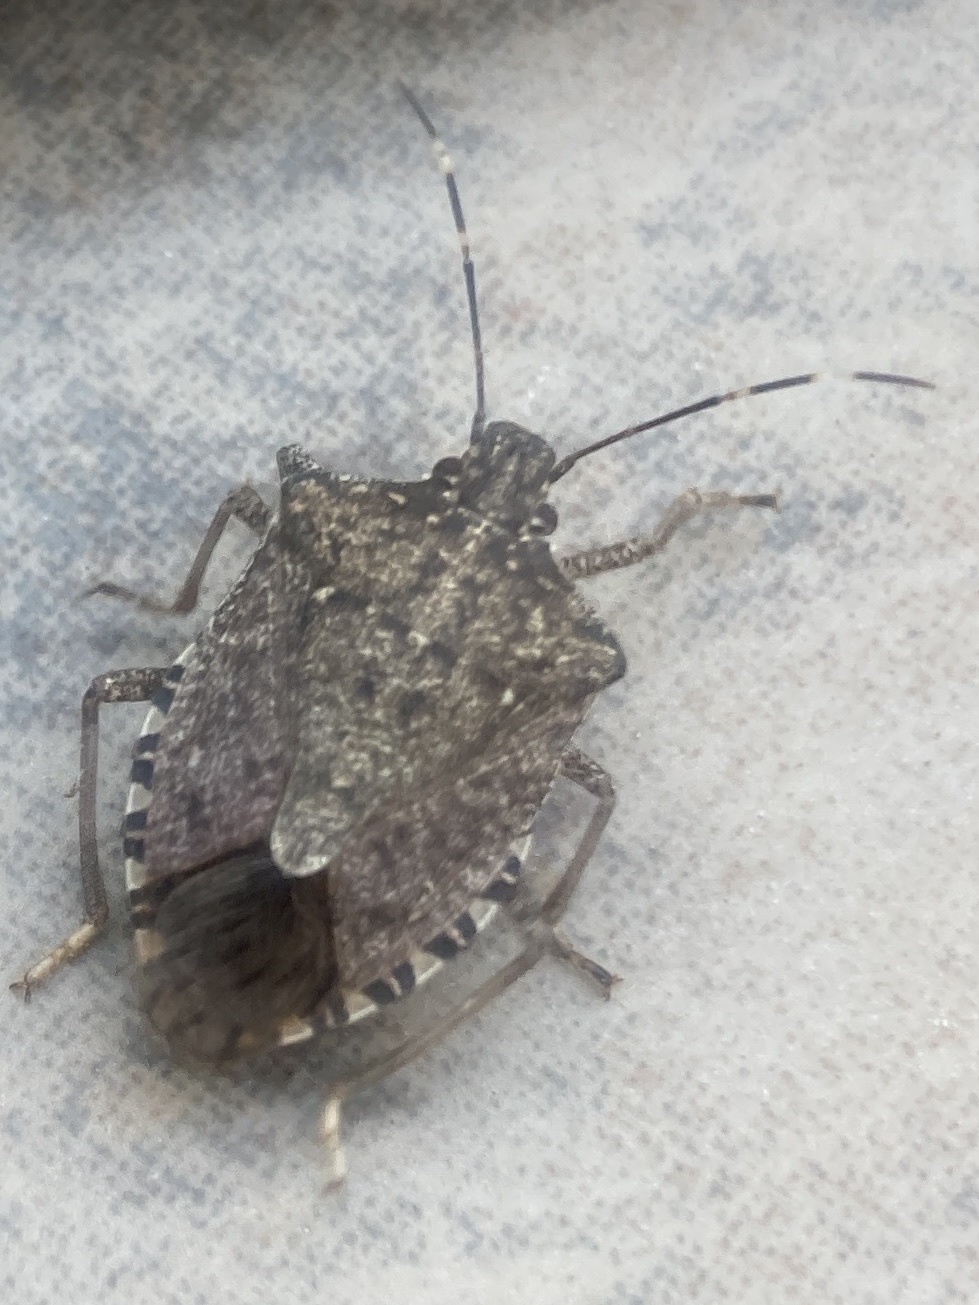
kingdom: Animalia
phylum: Arthropoda
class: Insecta
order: Hemiptera
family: Pentatomidae
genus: Halyomorpha
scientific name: Halyomorpha halys
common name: Brown marmorated stink bug
